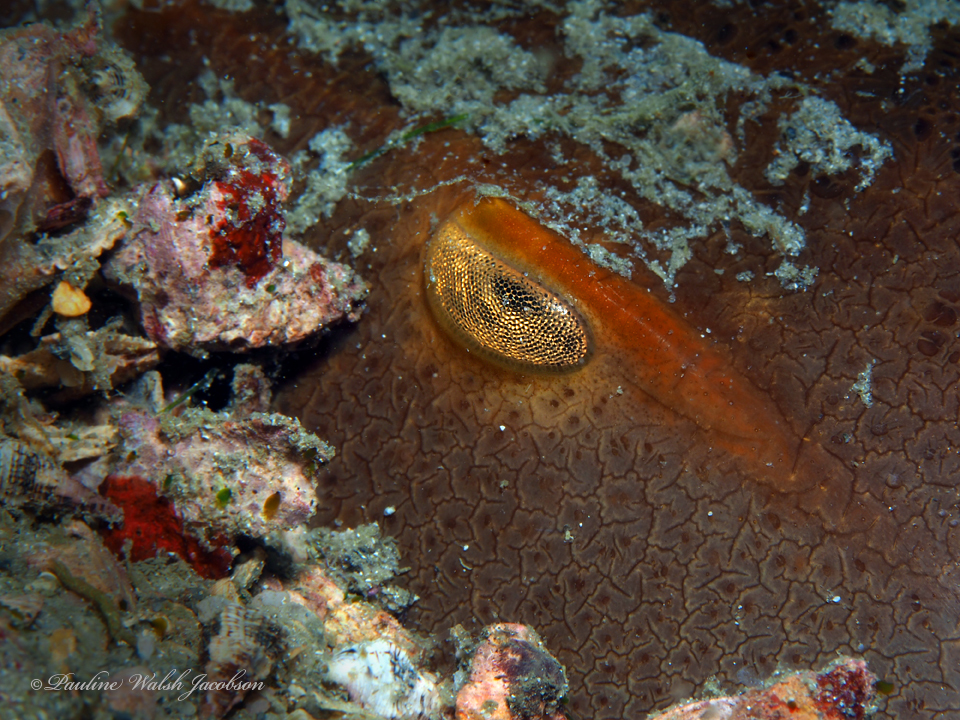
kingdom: Animalia
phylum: Arthropoda
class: Merostomata
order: Xiphosurida
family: Limulidae
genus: Limulus
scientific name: Limulus polyphemus
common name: Horseshoe crab
